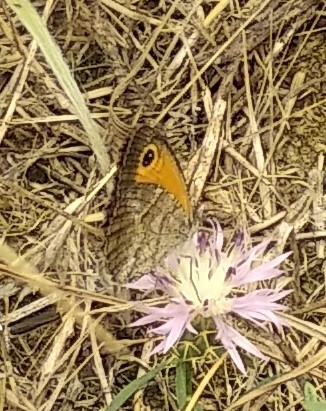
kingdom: Animalia
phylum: Arthropoda
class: Insecta
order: Lepidoptera
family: Nymphalidae
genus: Pyronia
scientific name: Pyronia cecilia
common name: Southern gatekeeper
